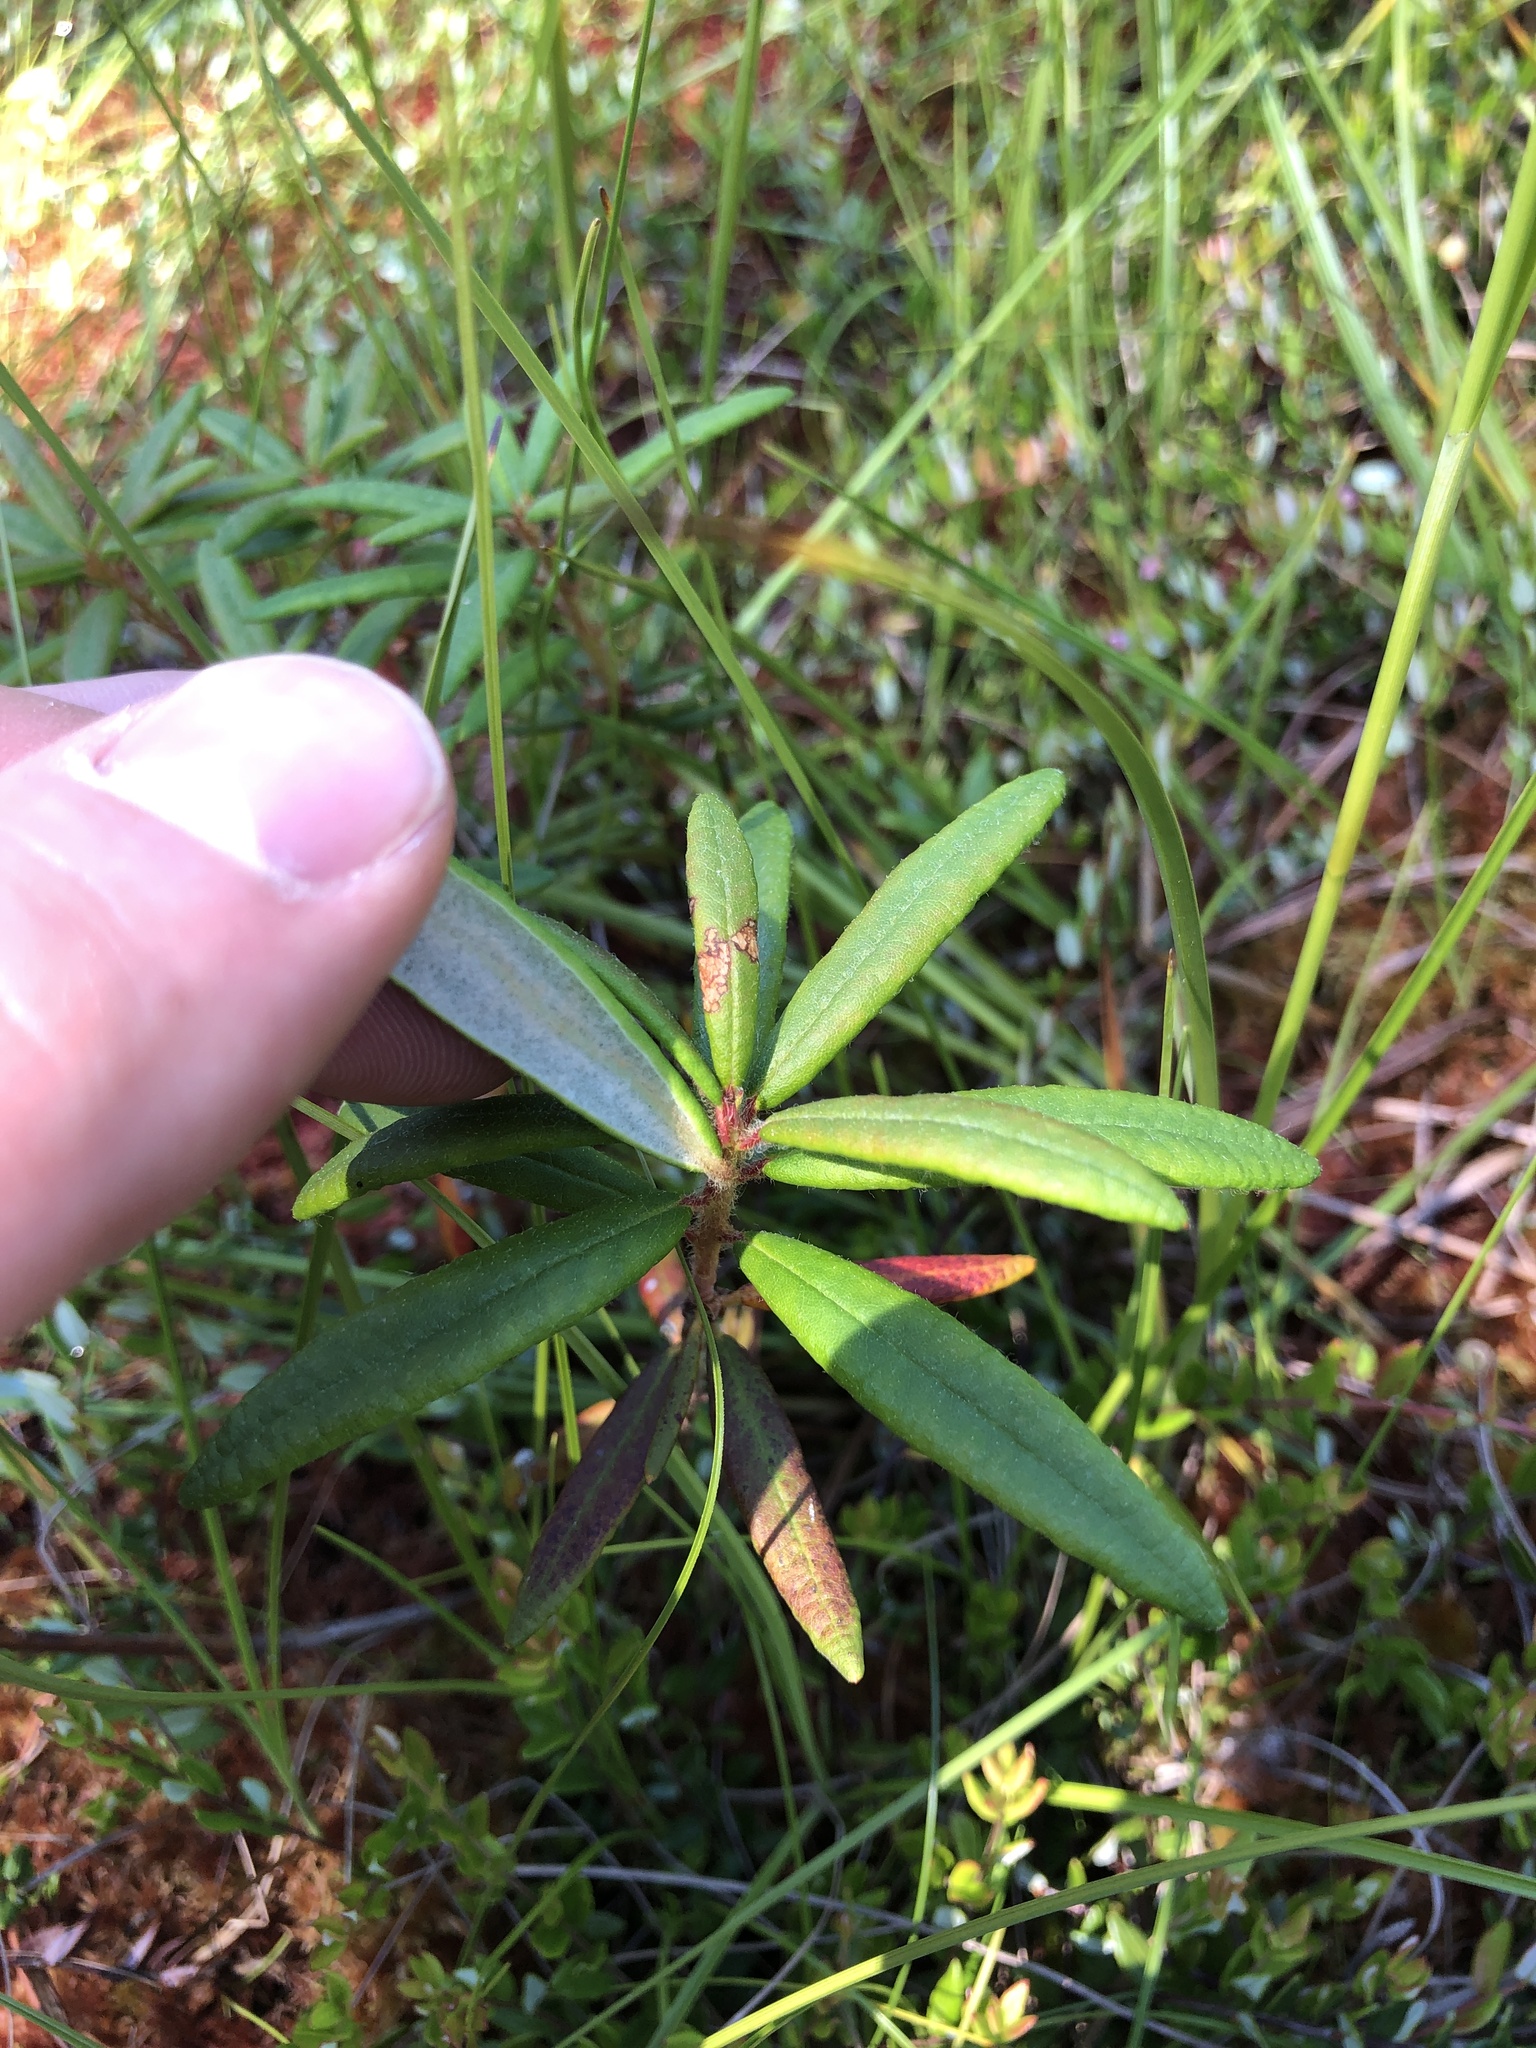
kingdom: Plantae
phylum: Tracheophyta
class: Magnoliopsida
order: Ericales
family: Ericaceae
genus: Rhododendron
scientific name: Rhododendron groenlandicum
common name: Bog labrador tea
